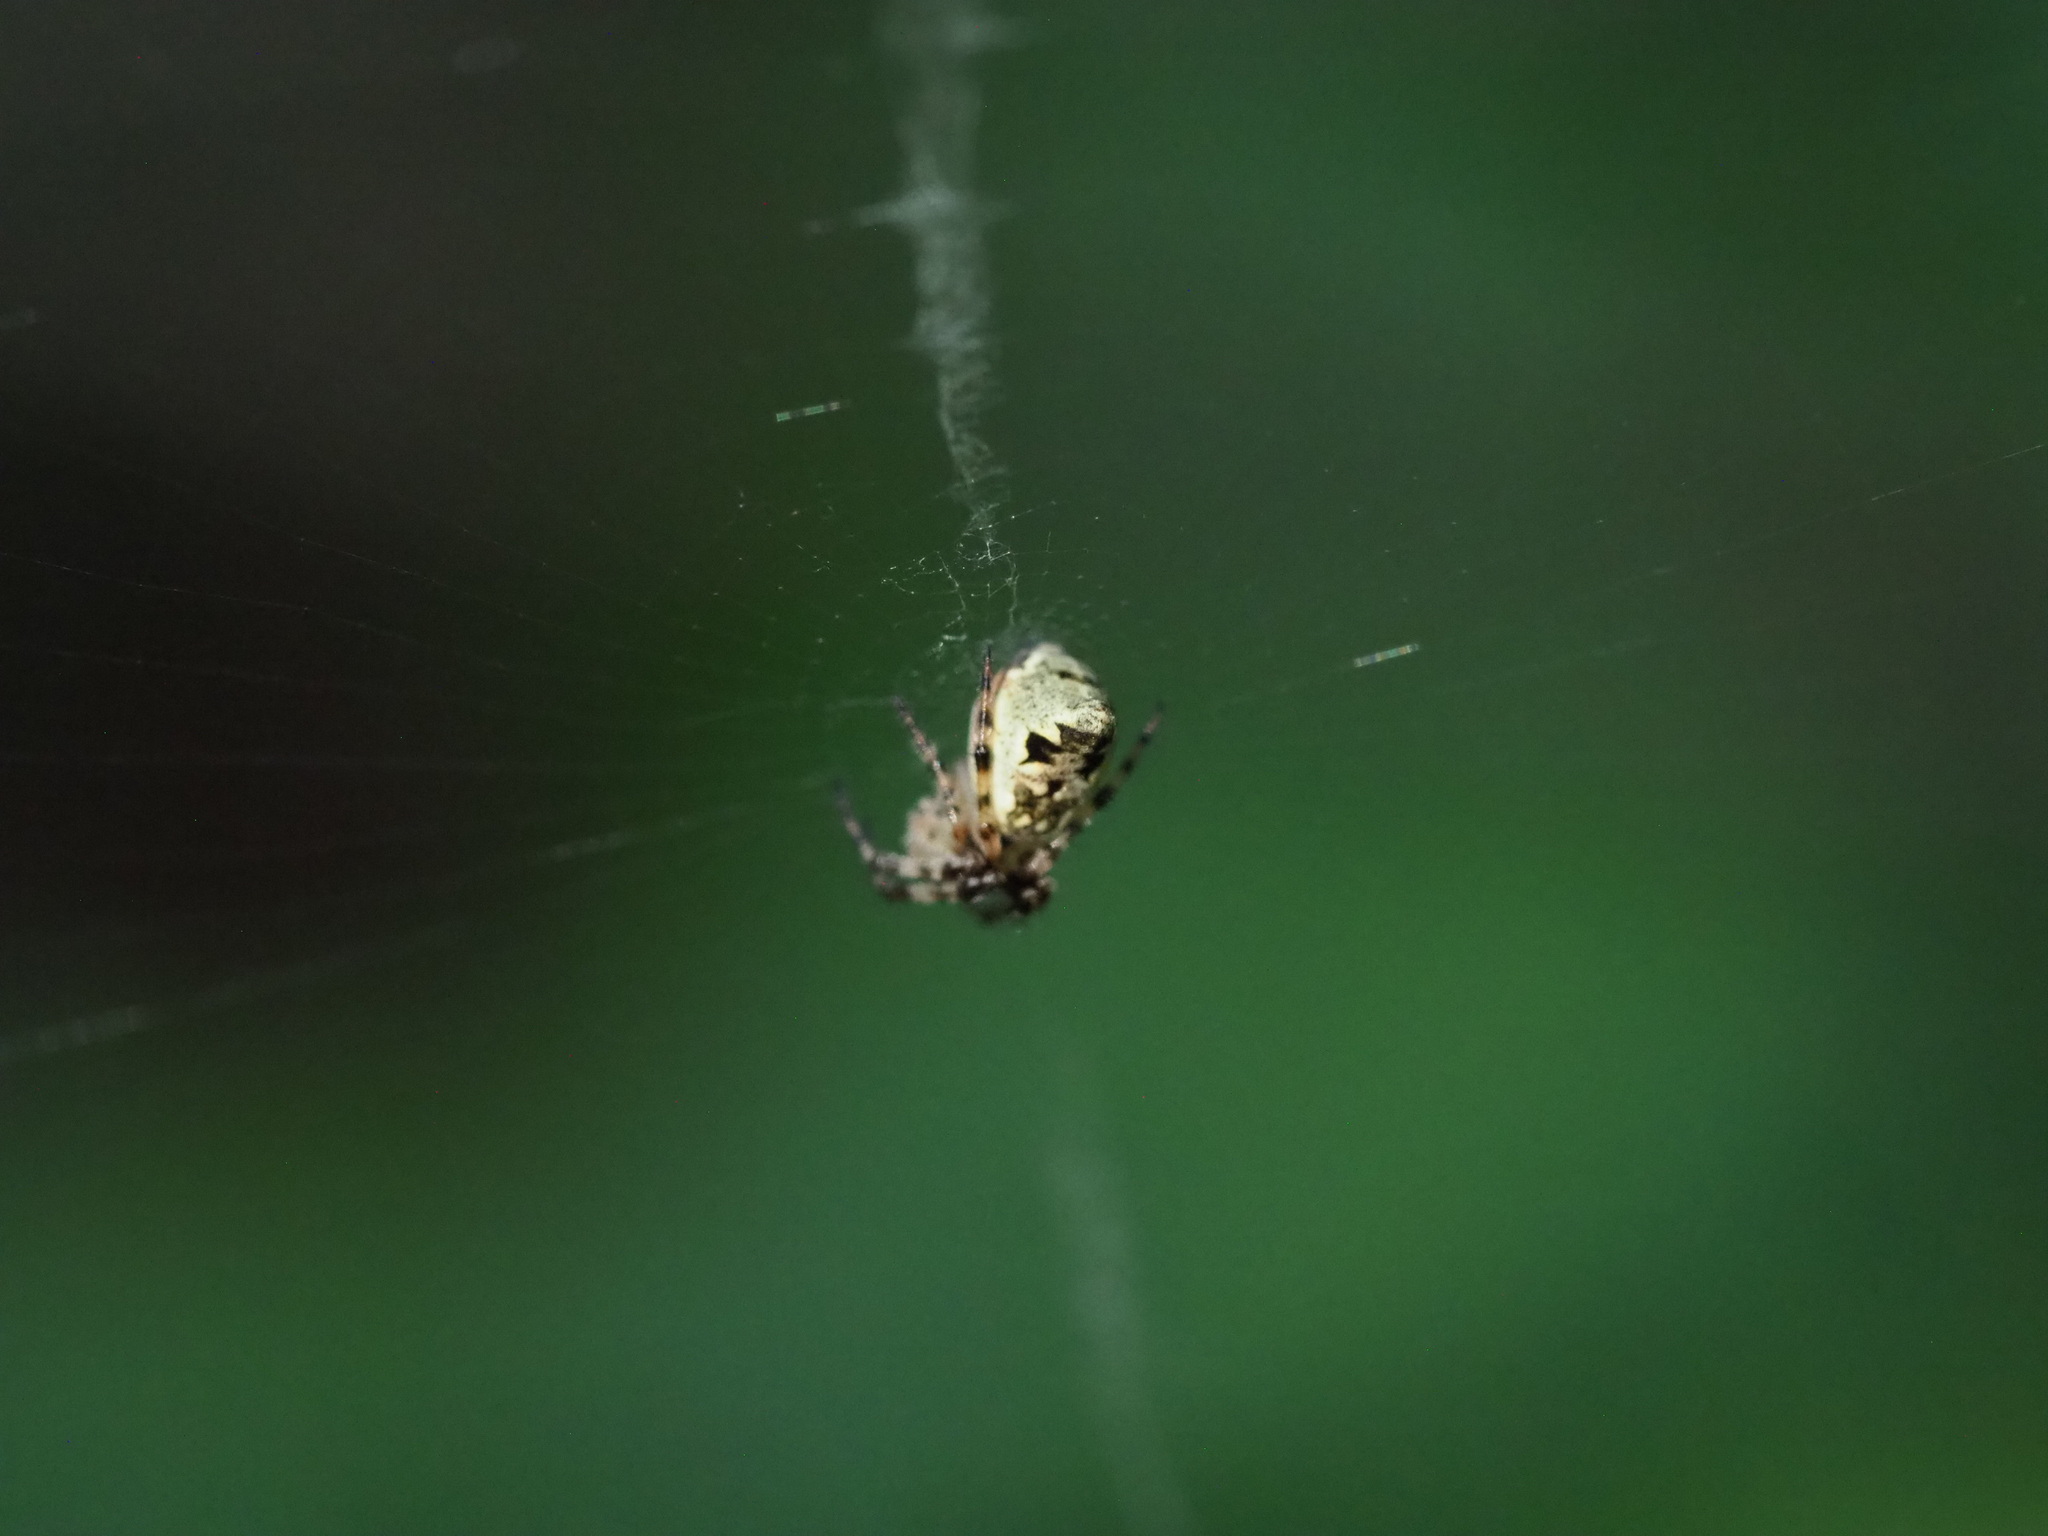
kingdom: Animalia
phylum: Arthropoda
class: Arachnida
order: Araneae
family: Araneidae
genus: Cyclosa
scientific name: Cyclosa conica
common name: Conical trashline orbweaver
